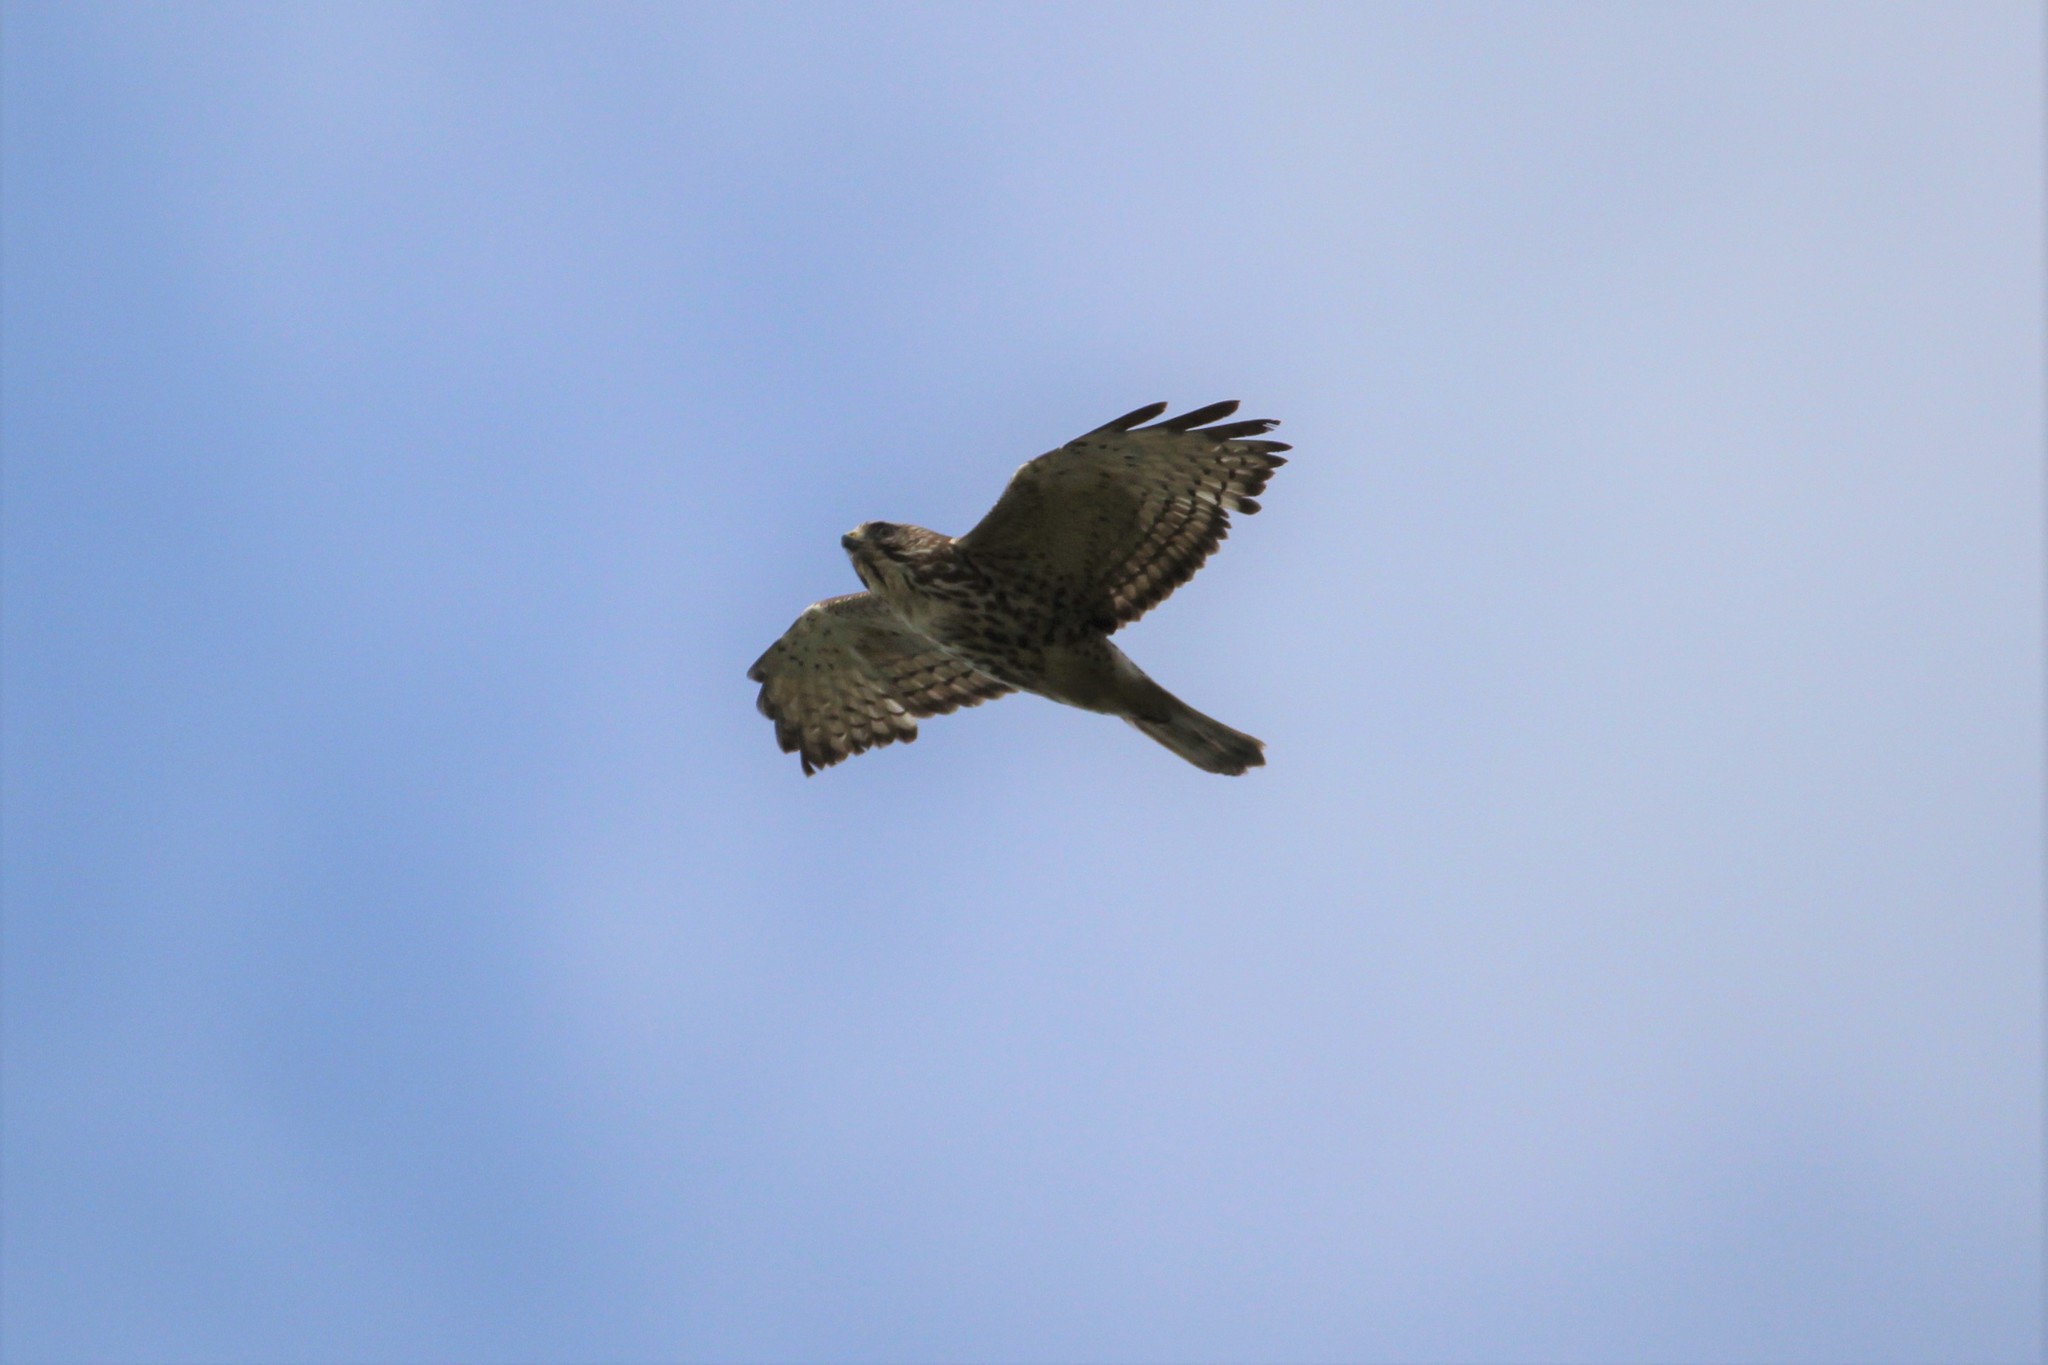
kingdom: Animalia
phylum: Chordata
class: Aves
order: Accipitriformes
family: Accipitridae
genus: Buteo
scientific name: Buteo platypterus
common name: Broad-winged hawk
